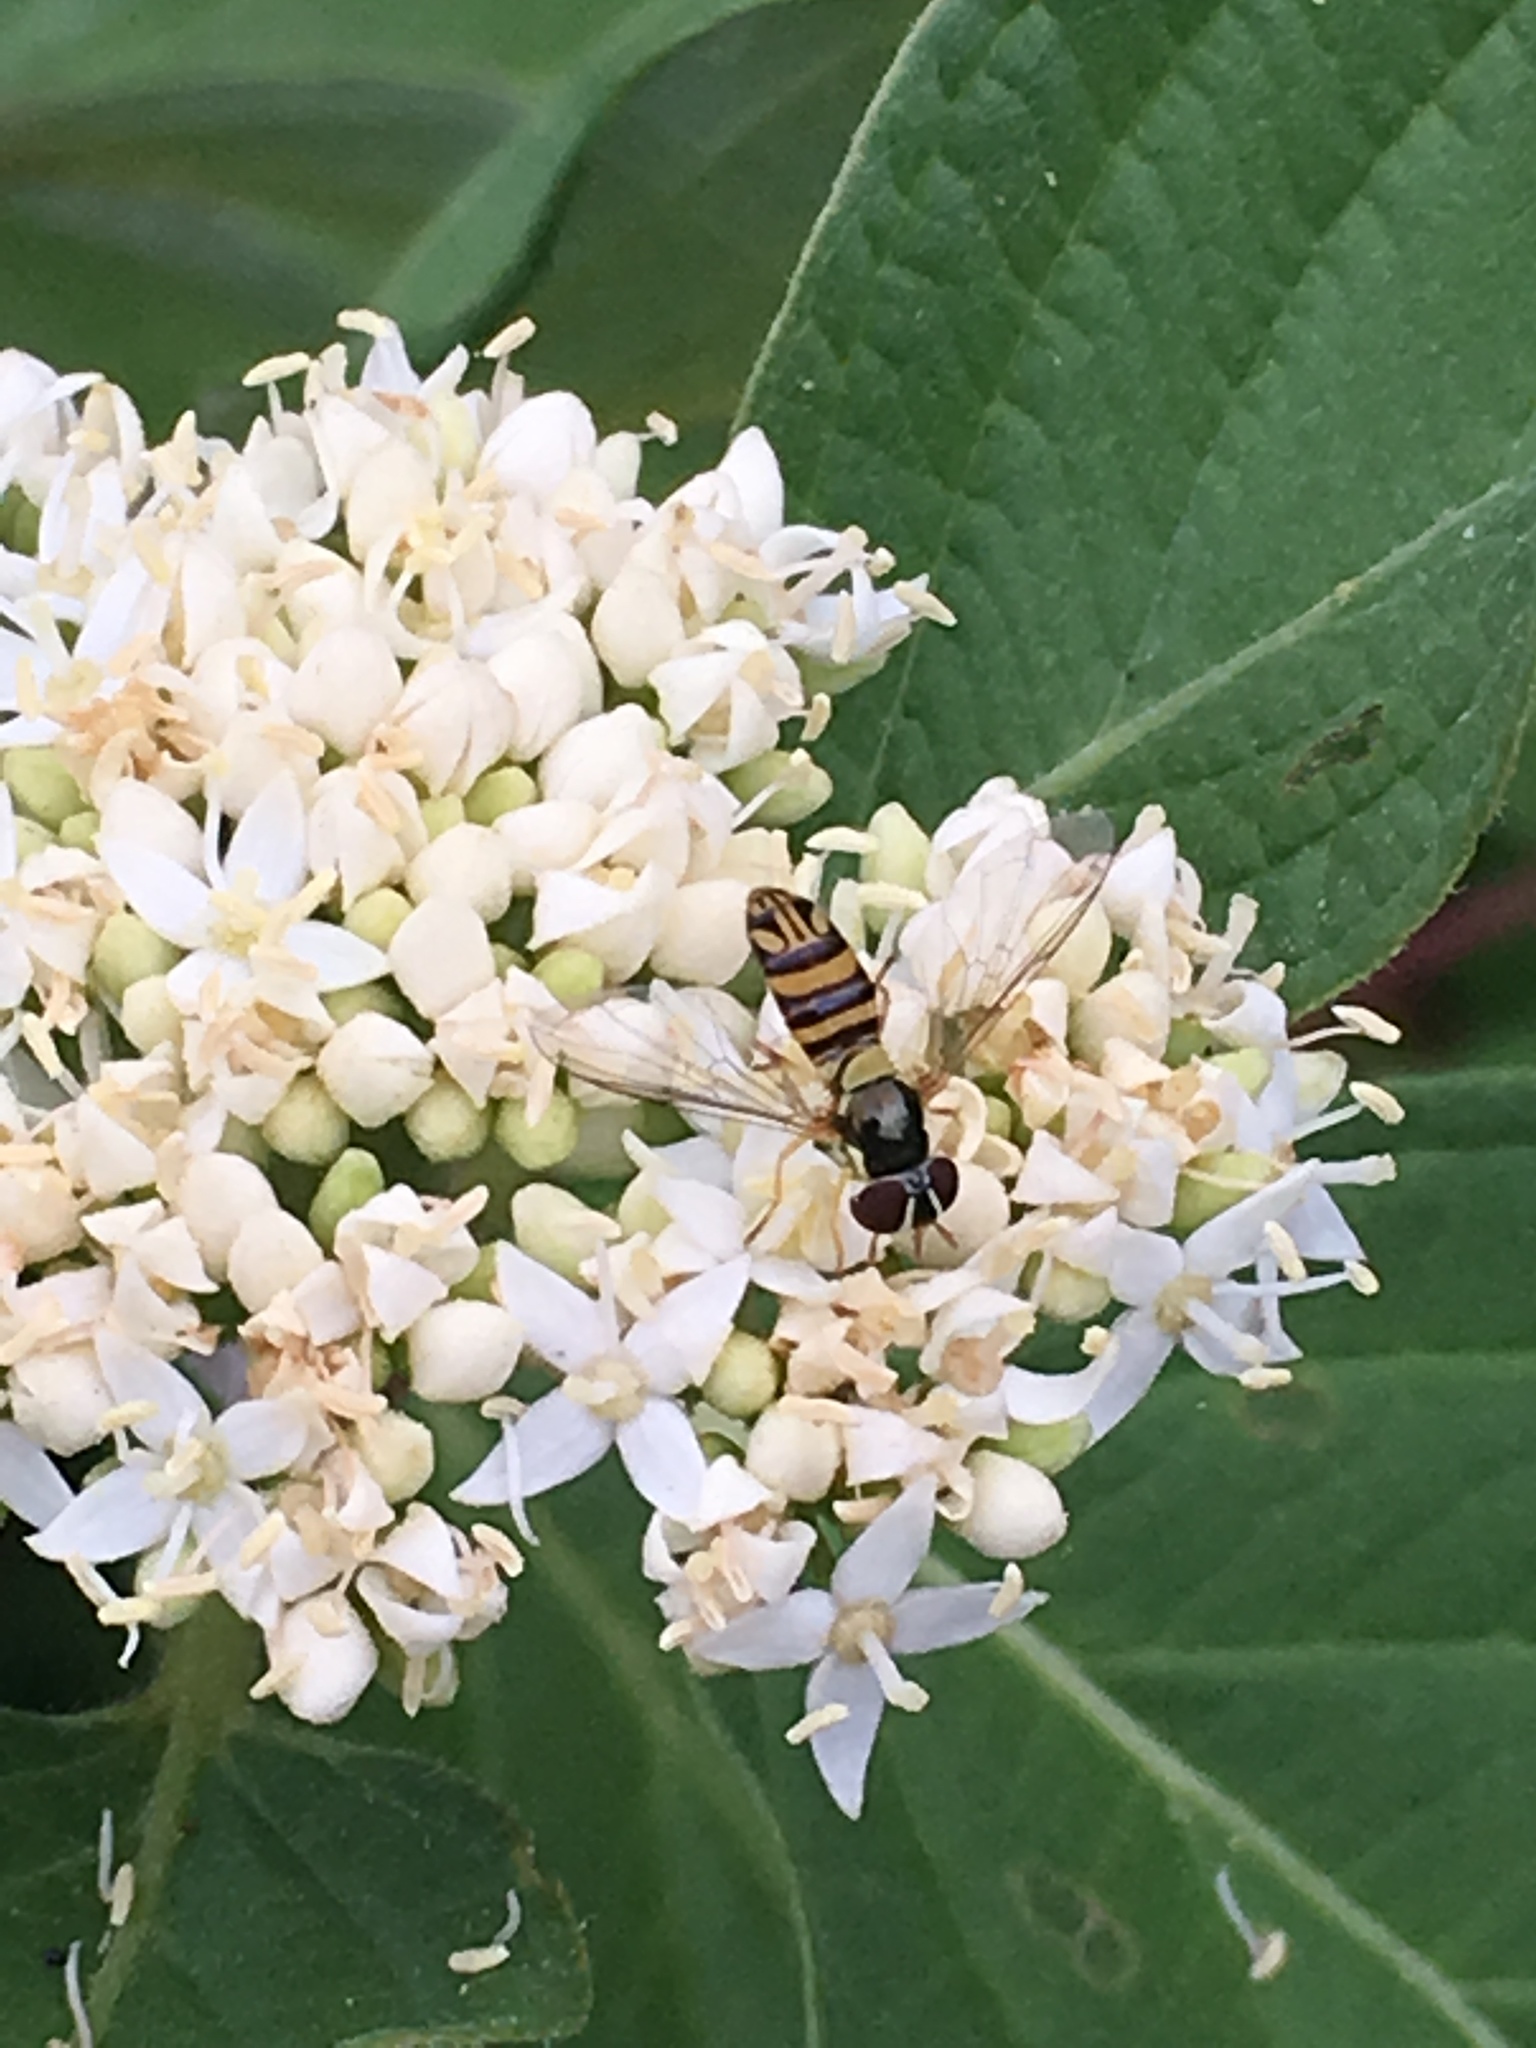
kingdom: Animalia
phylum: Arthropoda
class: Insecta
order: Diptera
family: Syrphidae
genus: Allograpta
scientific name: Allograpta obliqua
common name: Common oblique syrphid
